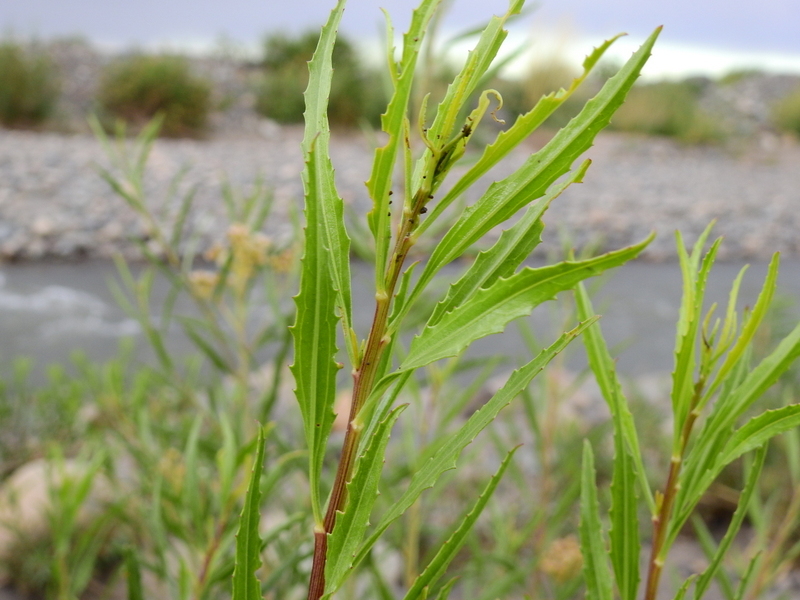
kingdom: Plantae
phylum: Tracheophyta
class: Magnoliopsida
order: Asterales
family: Asteraceae
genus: Baccharis
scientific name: Baccharis salicifolia
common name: Sticky baccharis
